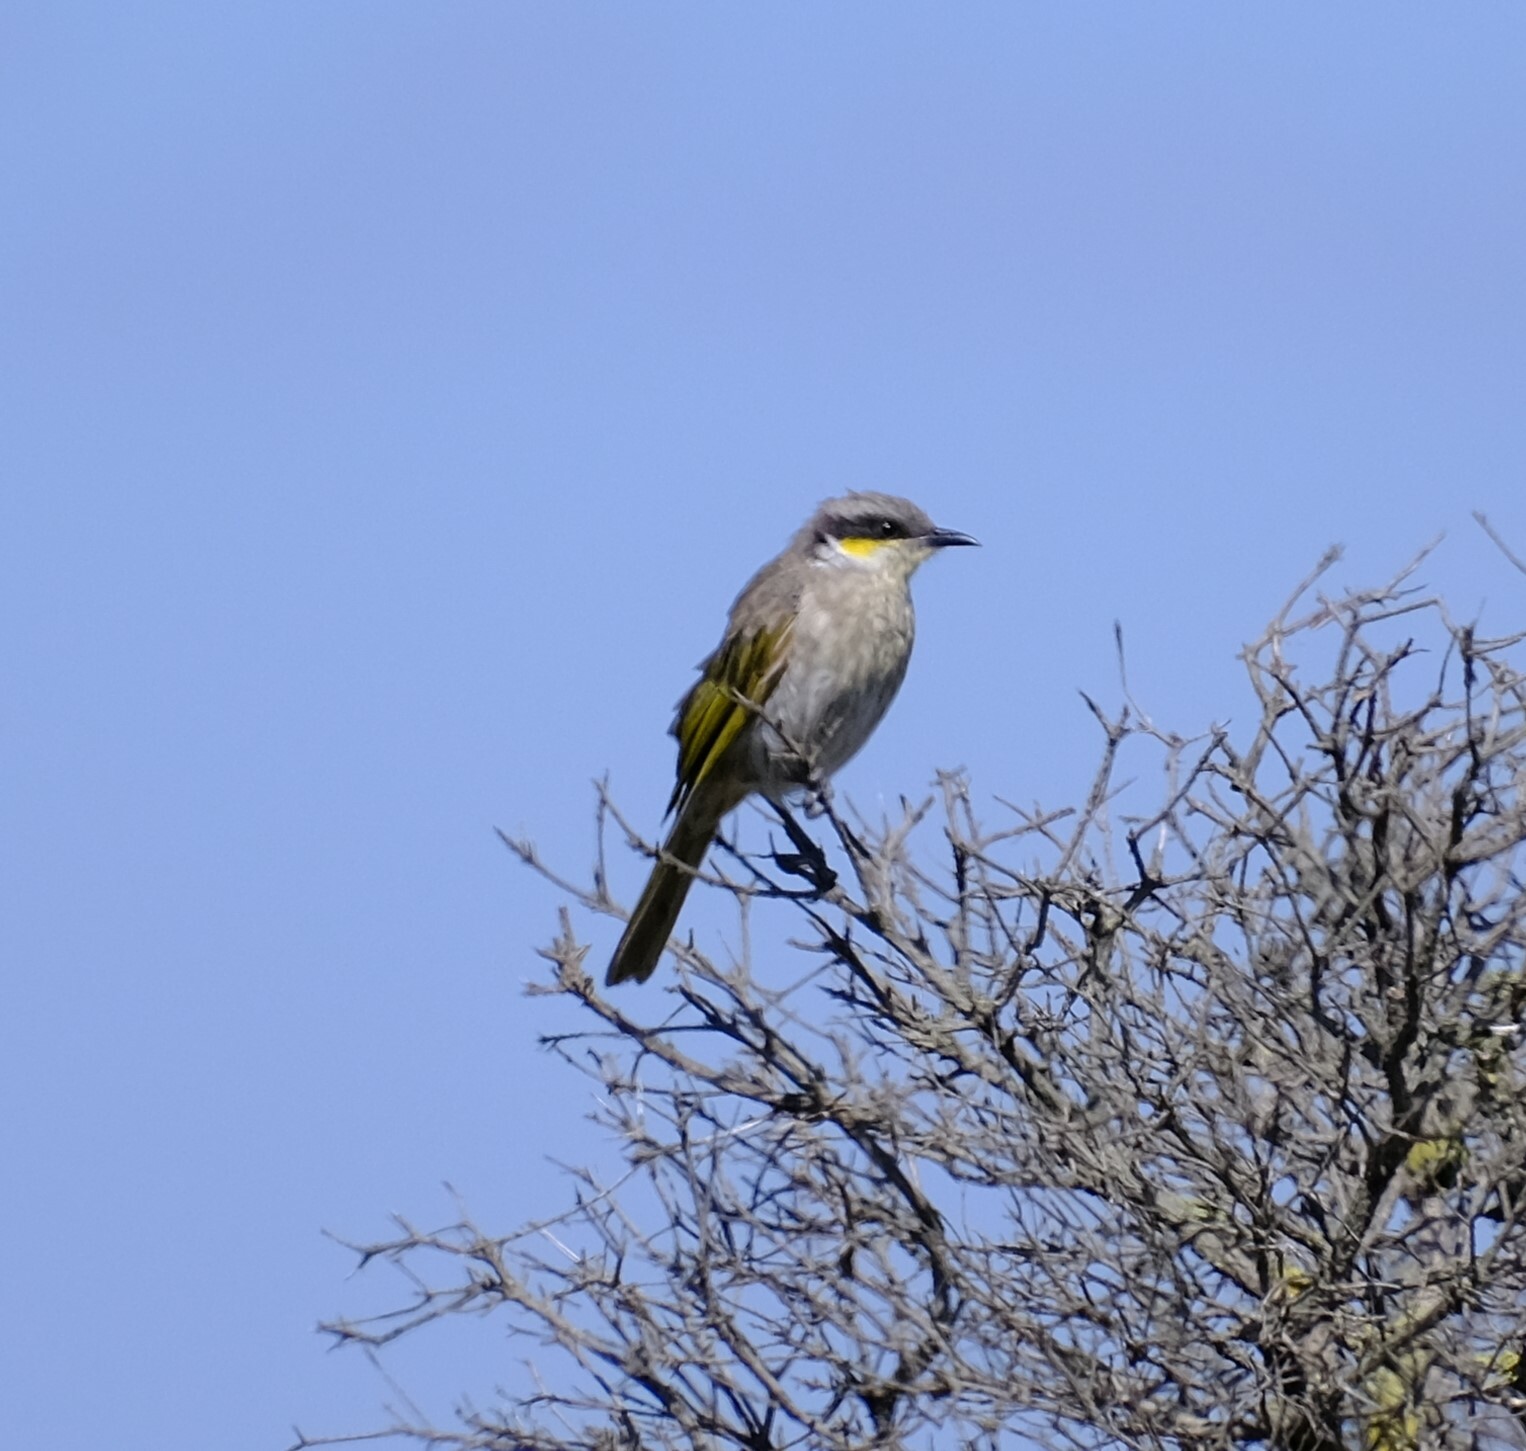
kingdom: Animalia
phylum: Chordata
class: Aves
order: Passeriformes
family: Meliphagidae
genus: Gavicalis
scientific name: Gavicalis virescens
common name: Singing honeyeater
